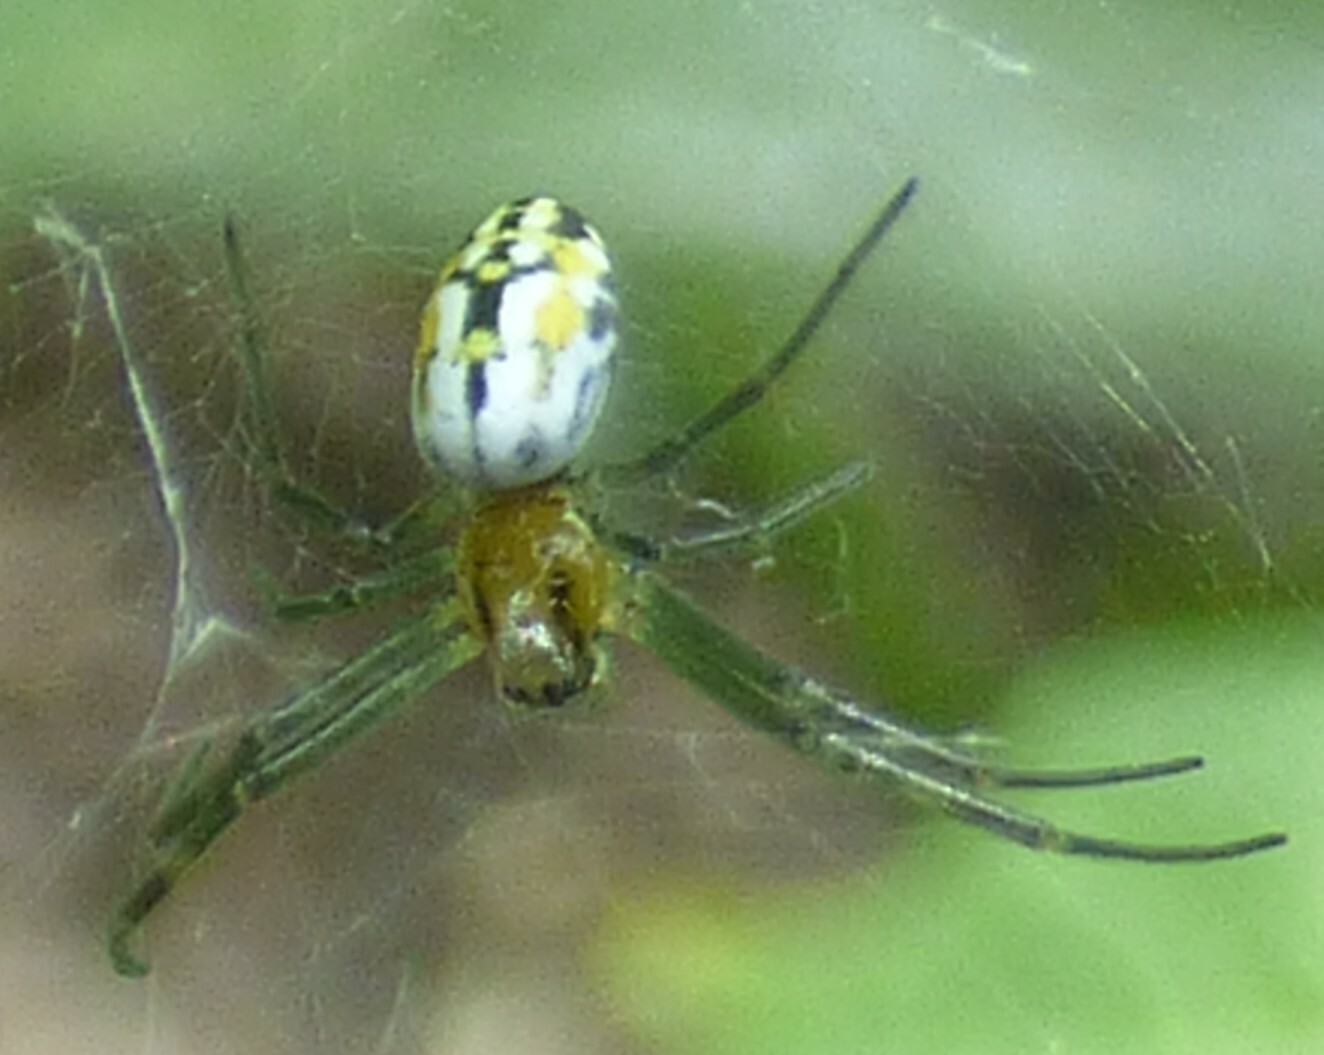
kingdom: Animalia
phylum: Arthropoda
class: Arachnida
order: Araneae
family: Araneidae
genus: Trichonephila
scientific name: Trichonephila clavipes
